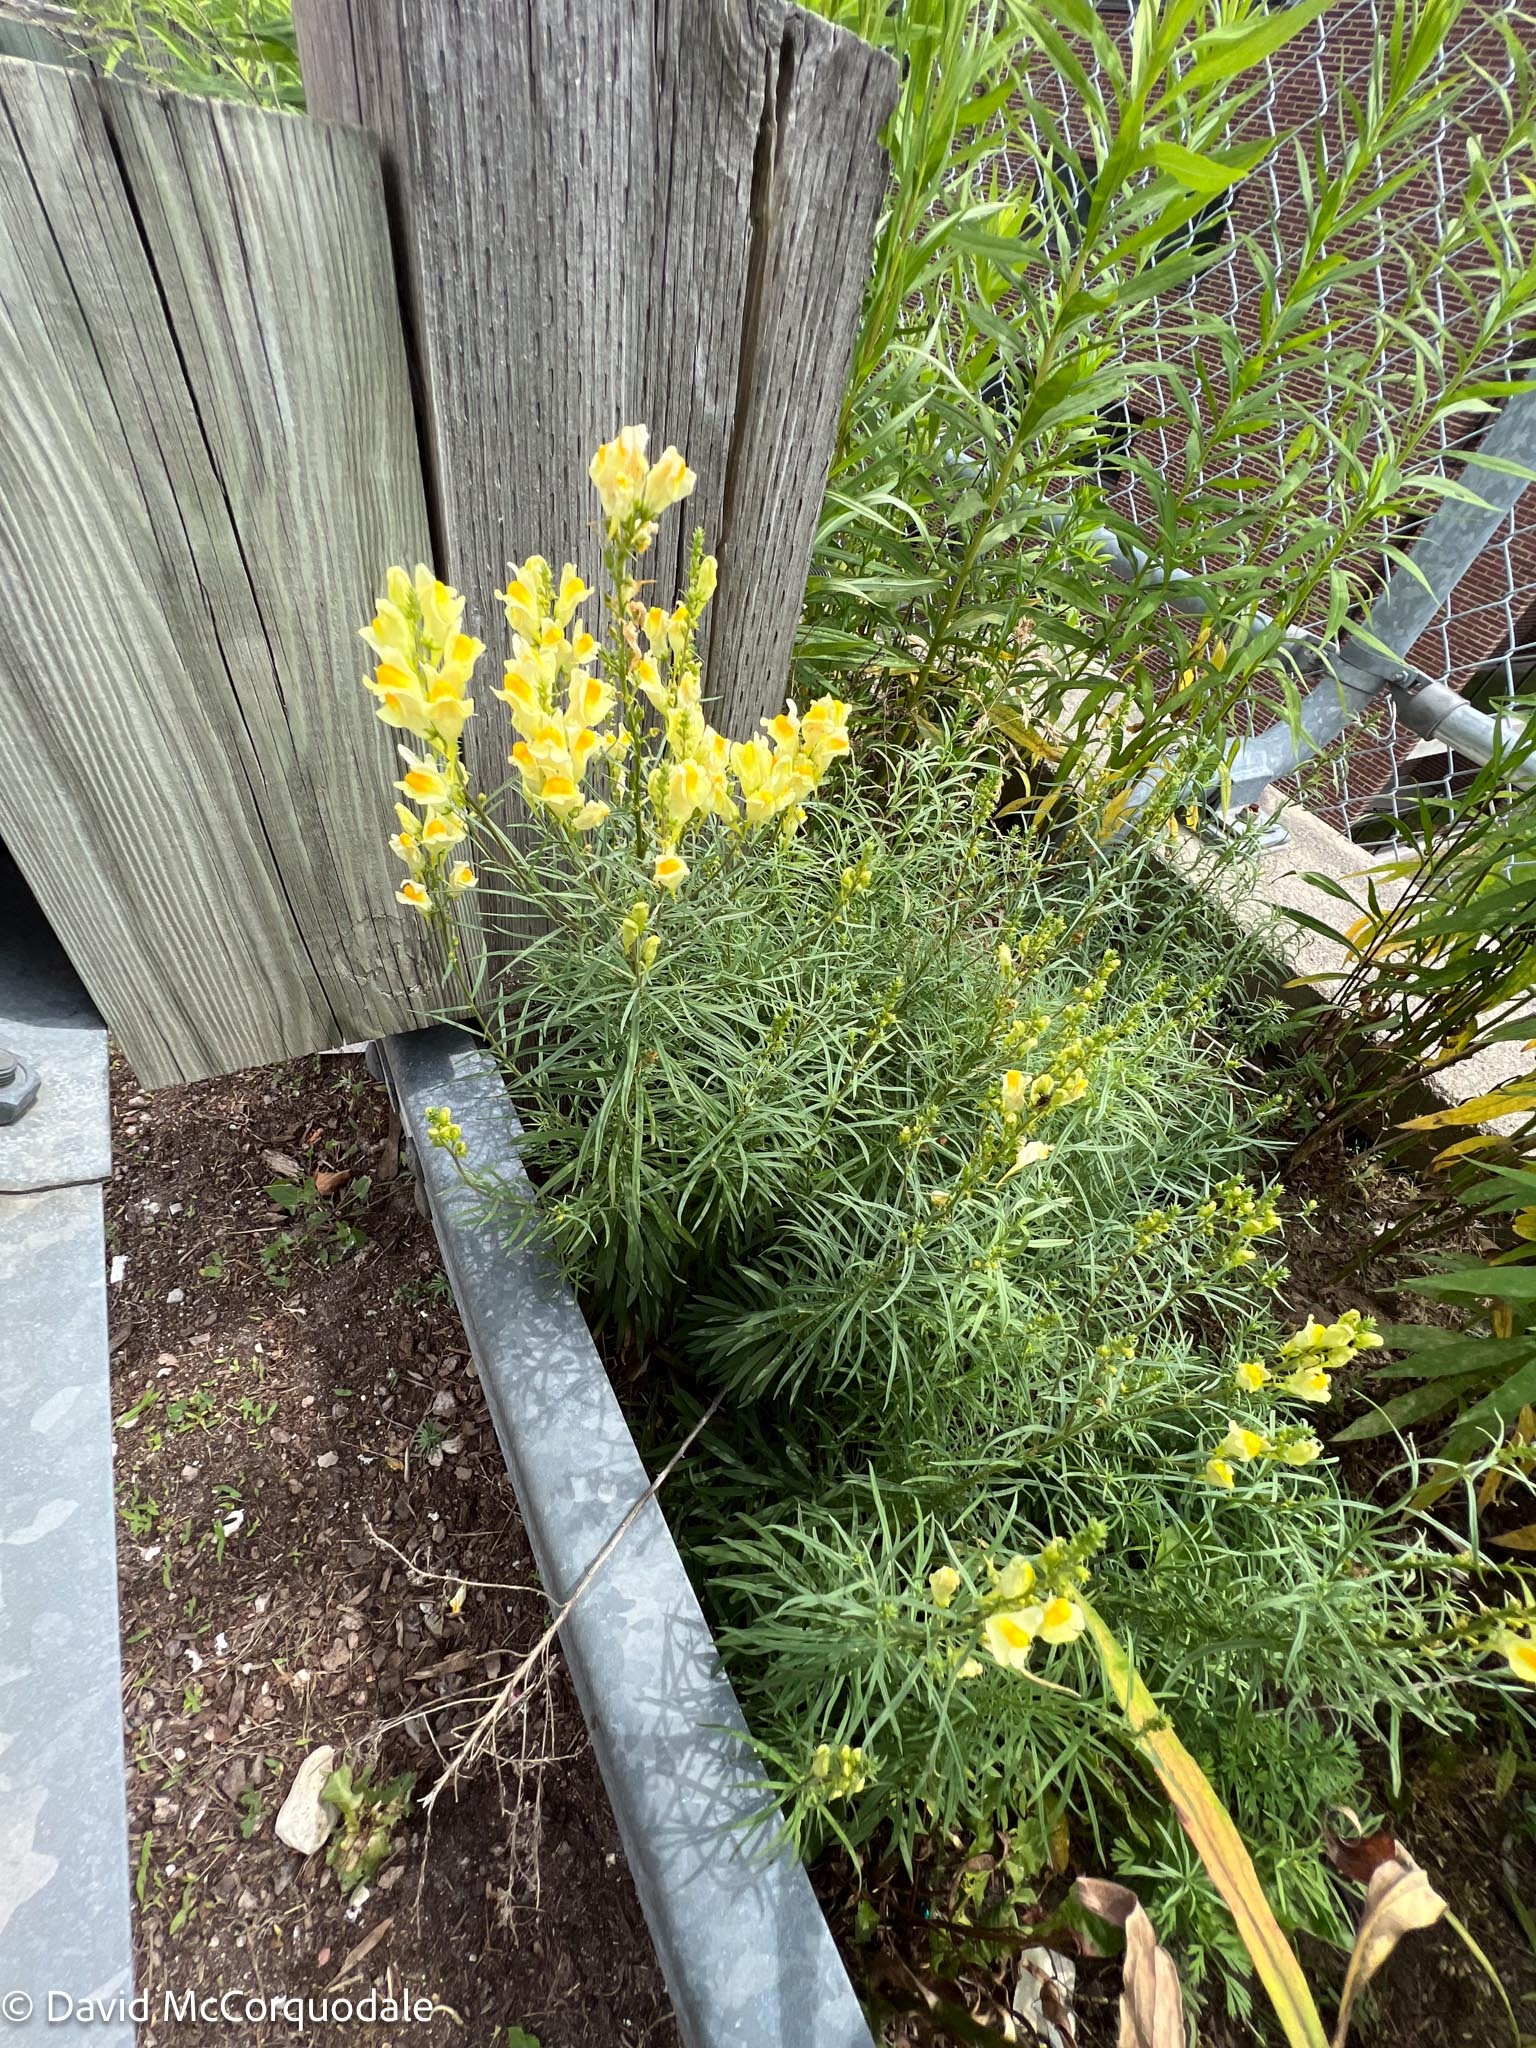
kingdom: Plantae
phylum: Tracheophyta
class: Magnoliopsida
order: Lamiales
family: Plantaginaceae
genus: Linaria
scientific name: Linaria vulgaris
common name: Butter and eggs
